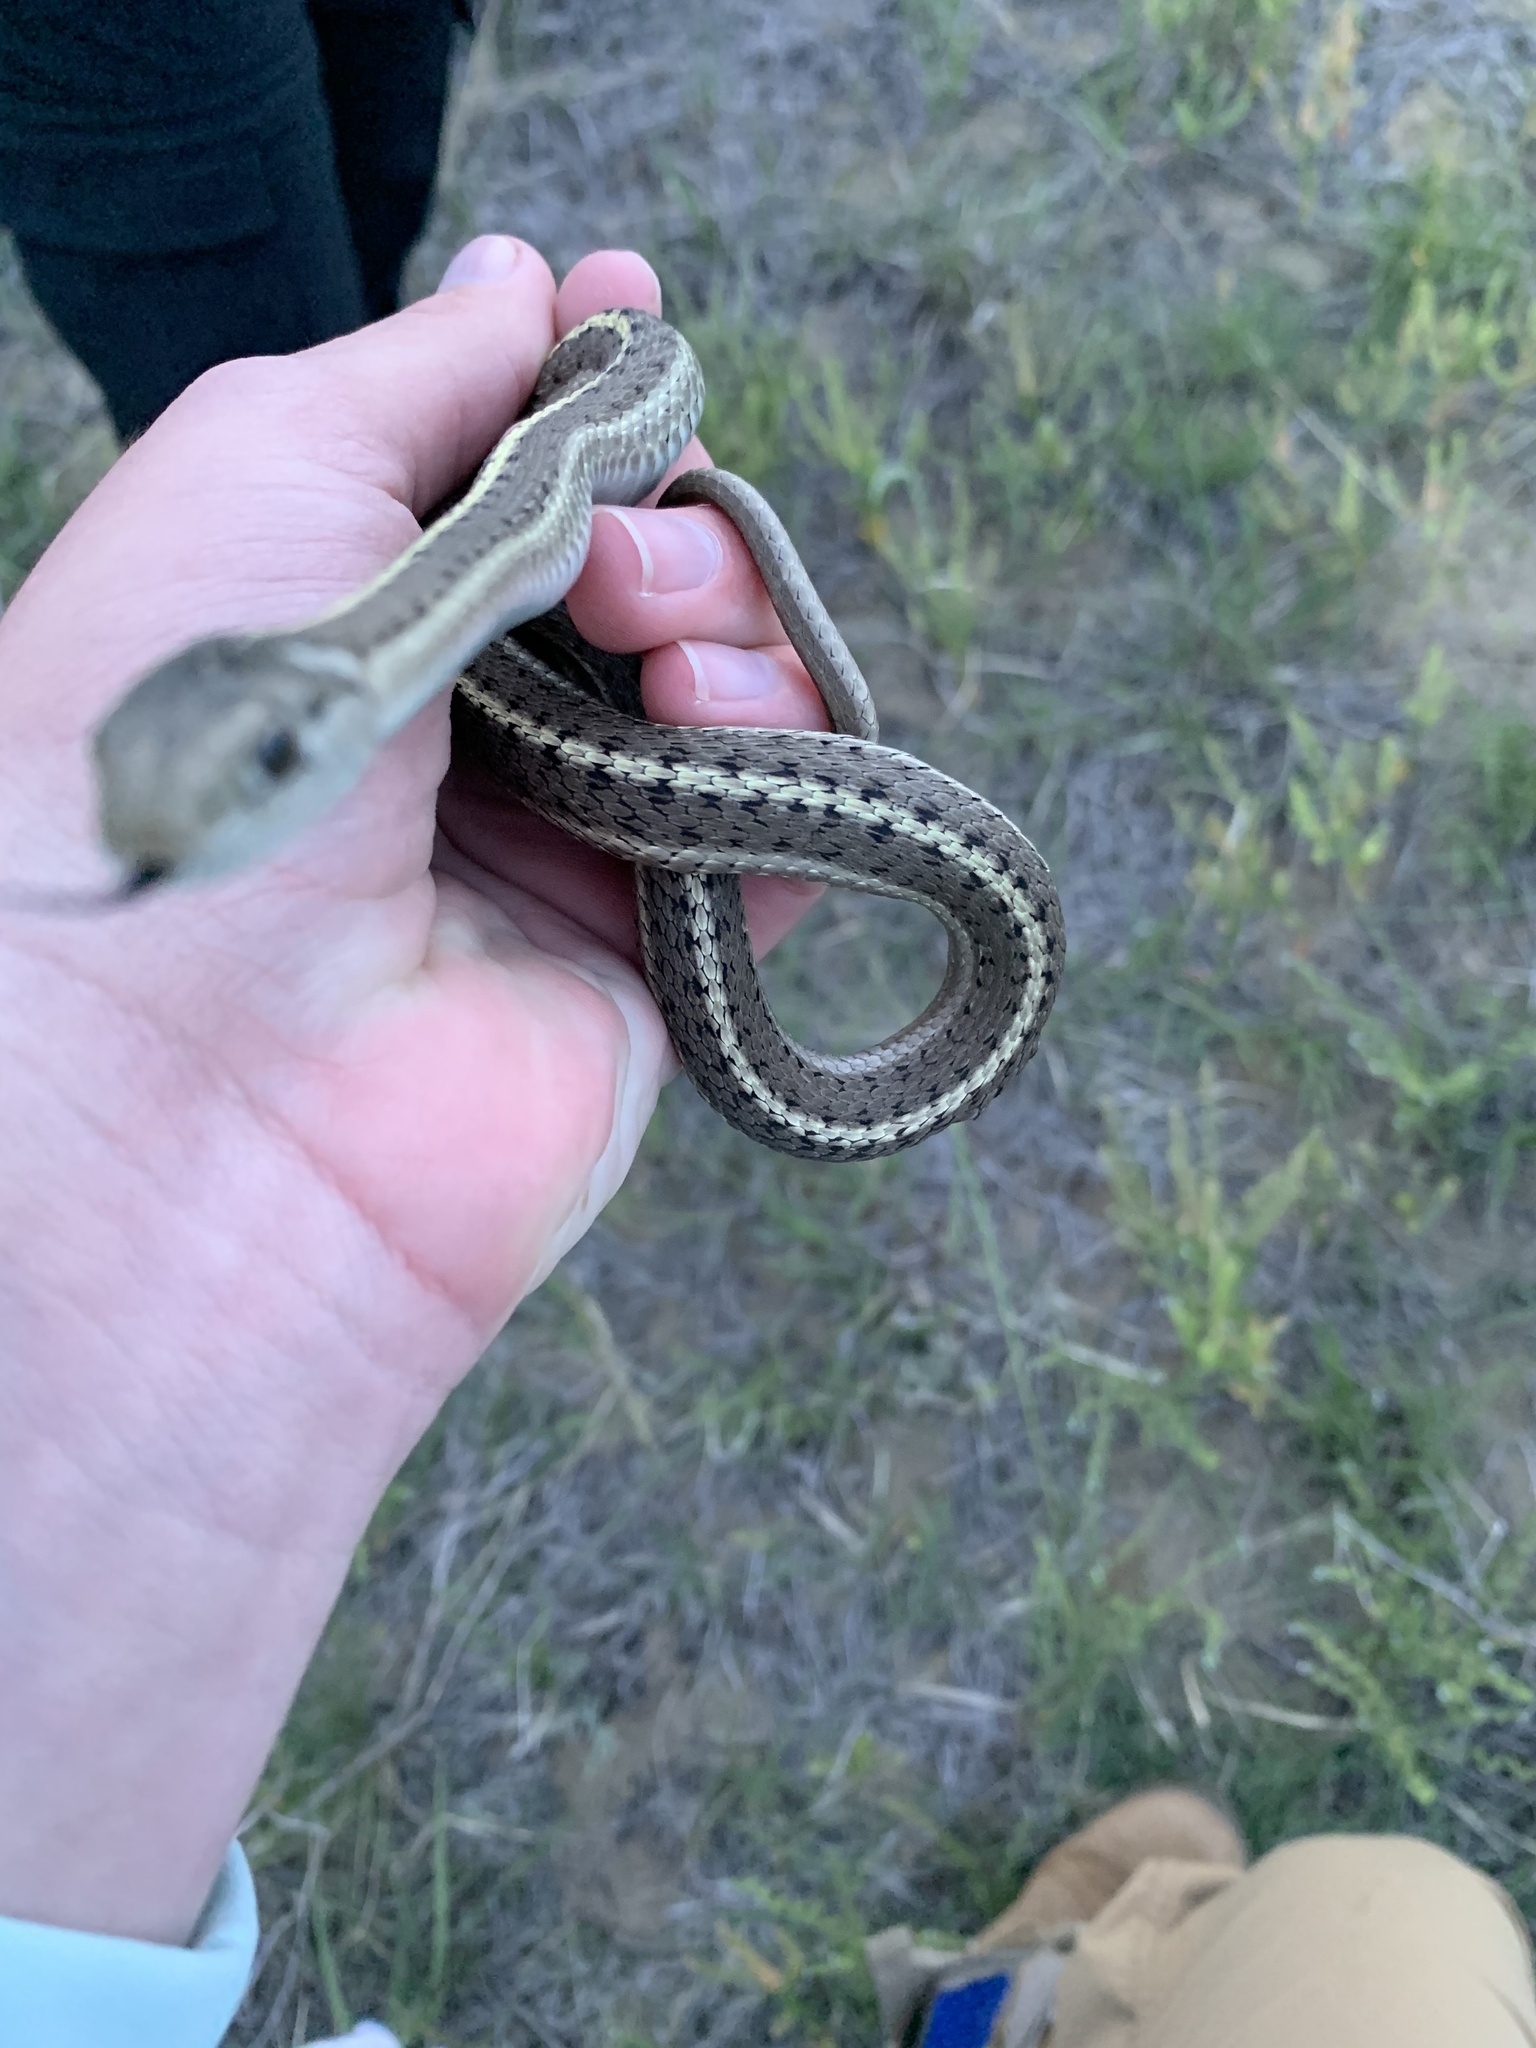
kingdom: Animalia
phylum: Chordata
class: Squamata
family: Colubridae
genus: Thamnophis
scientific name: Thamnophis elegans
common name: Western terrestrial garter snake
